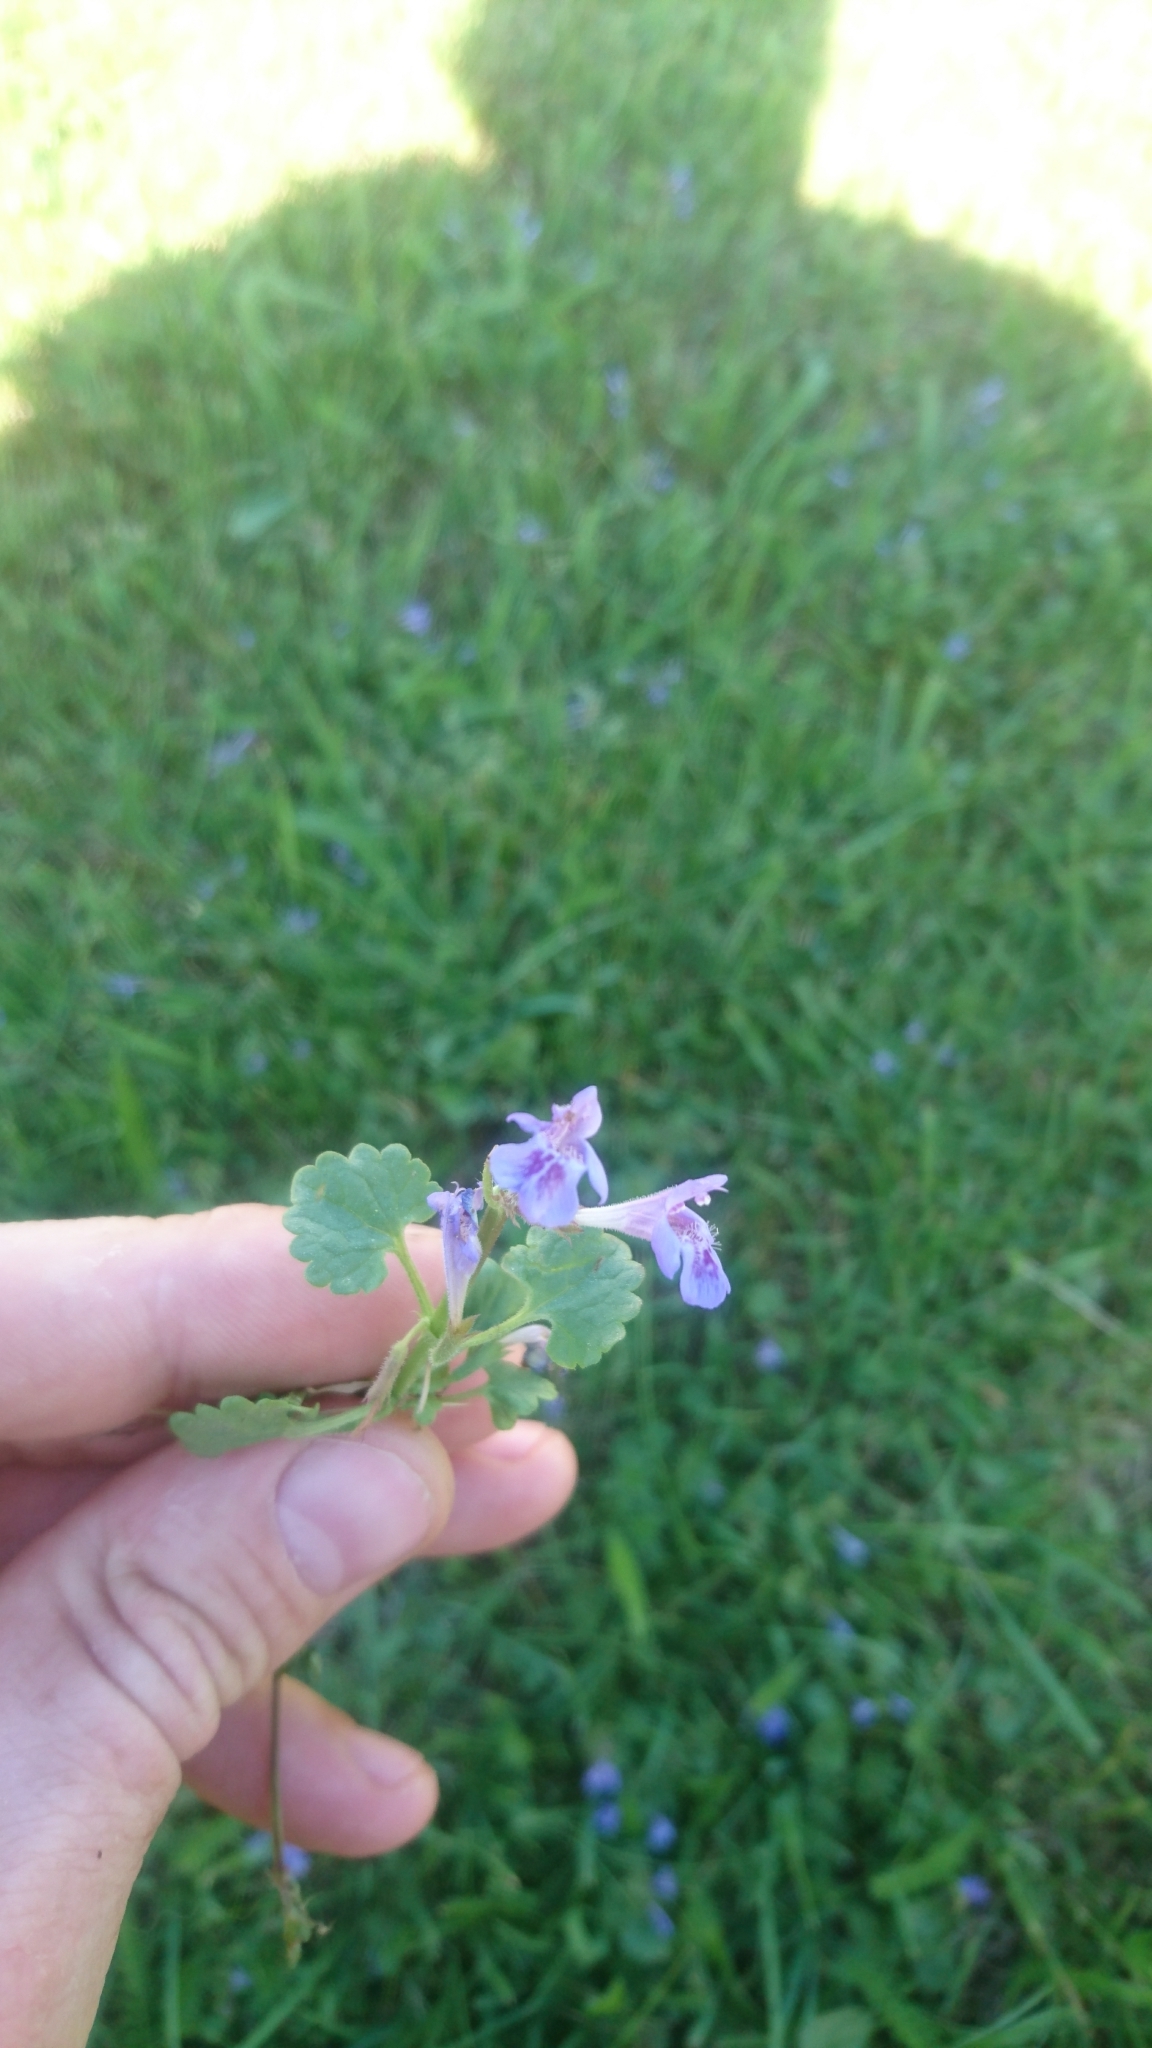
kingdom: Plantae
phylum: Tracheophyta
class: Magnoliopsida
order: Lamiales
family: Lamiaceae
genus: Glechoma
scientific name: Glechoma hederacea
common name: Ground ivy
